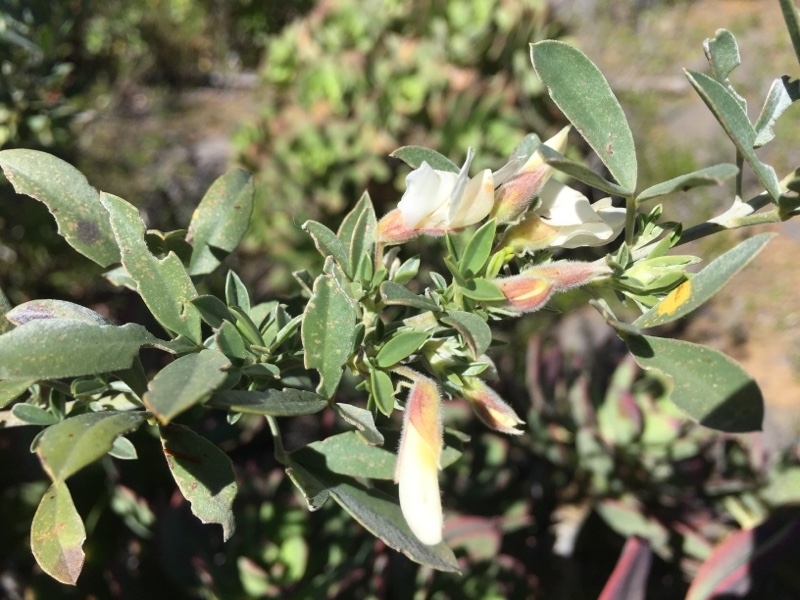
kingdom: Plantae
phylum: Tracheophyta
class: Magnoliopsida
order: Fabales
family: Fabaceae
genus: Chamaecytisus
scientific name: Chamaecytisus prolifer
